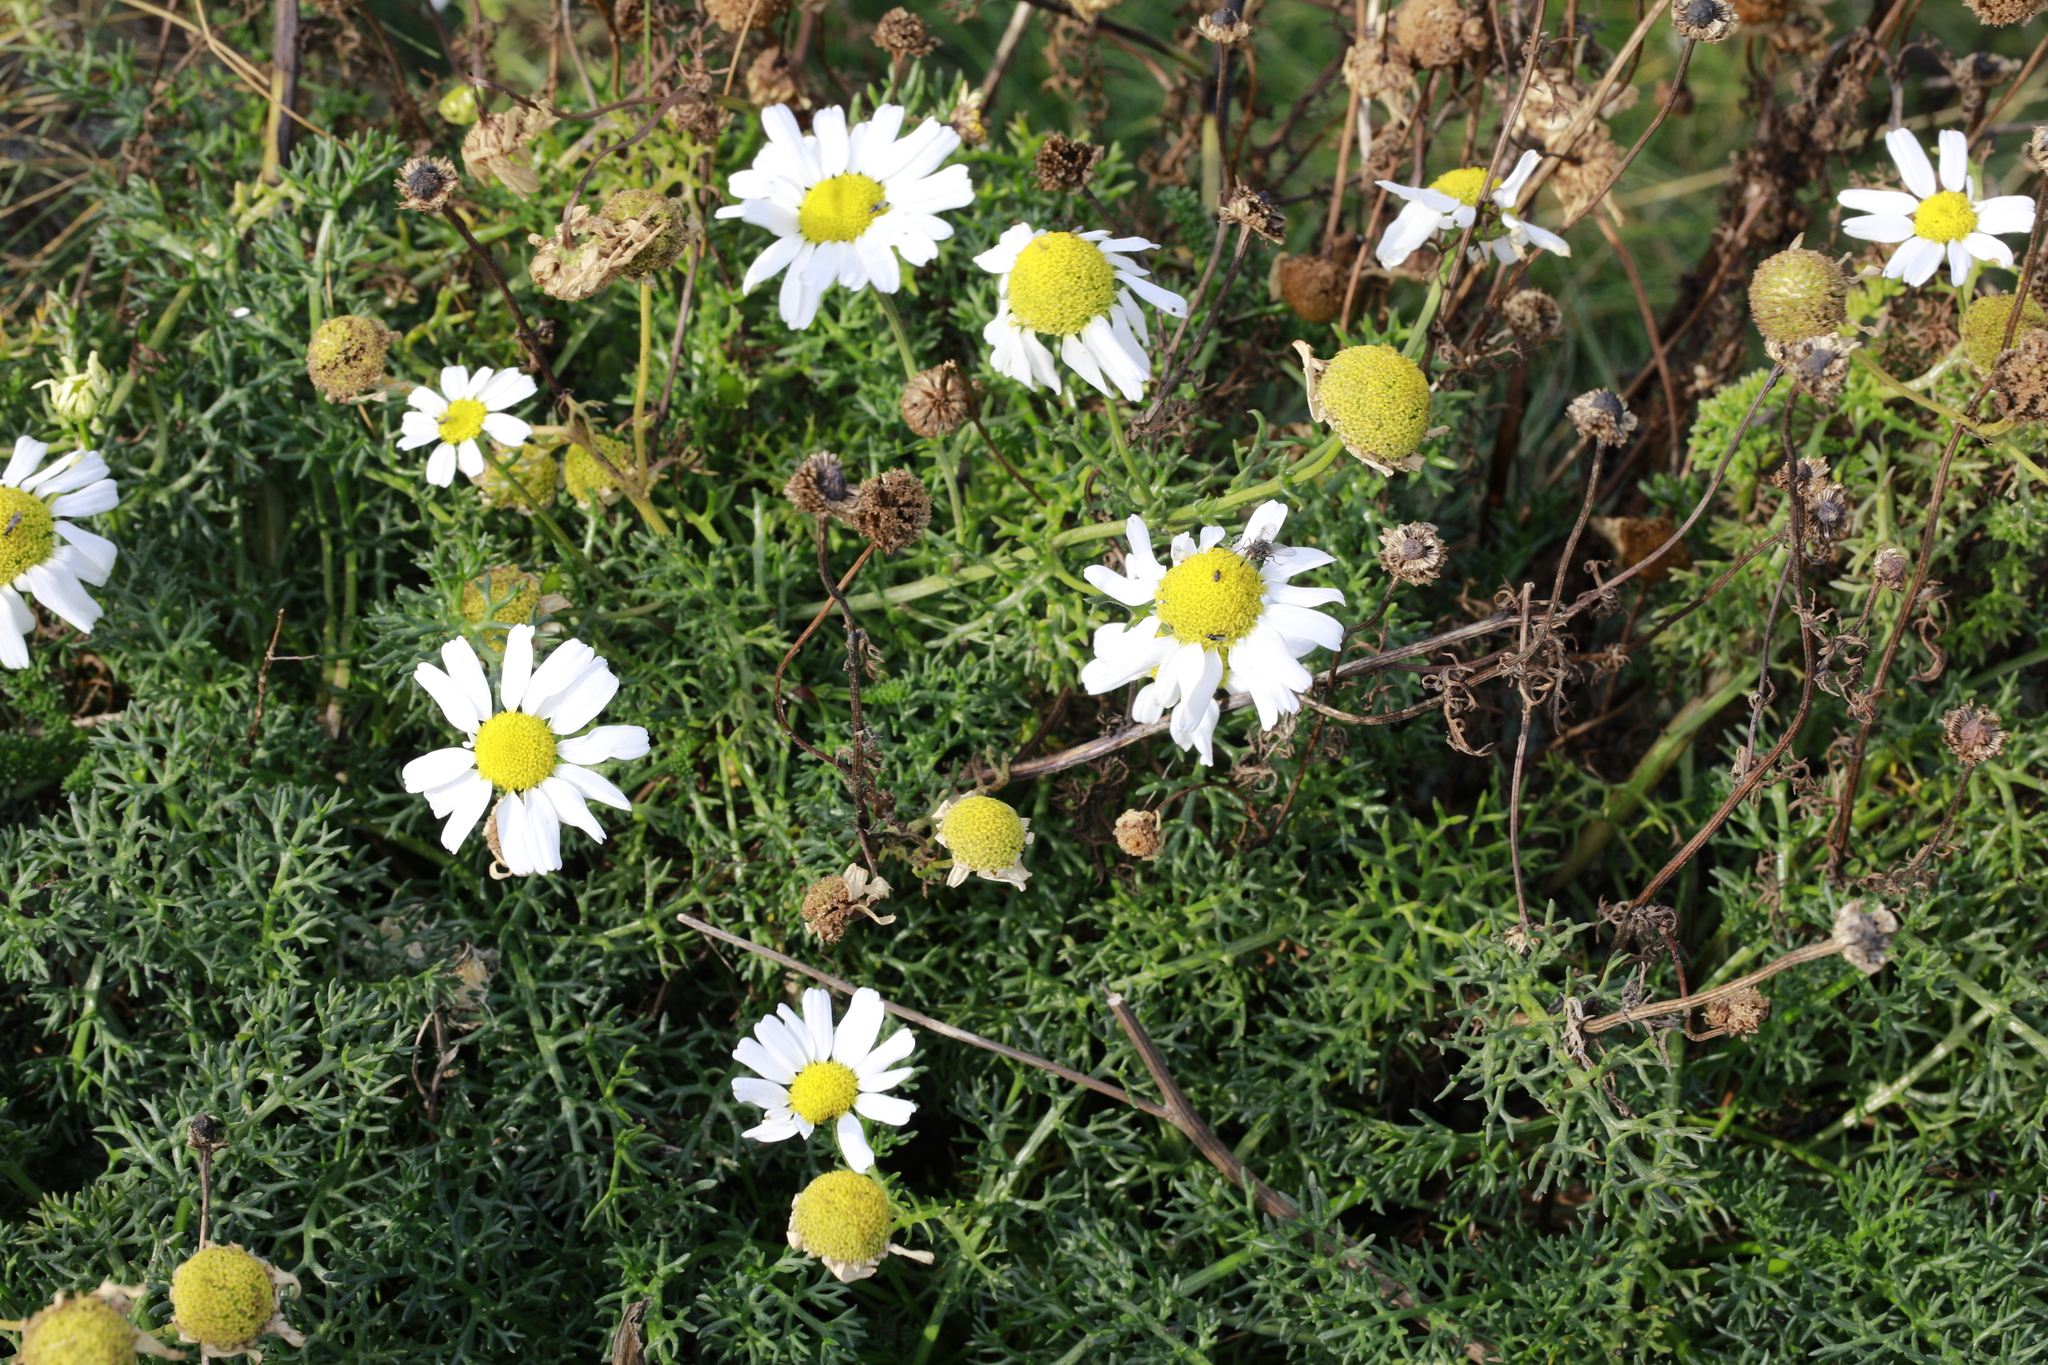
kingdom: Plantae
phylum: Tracheophyta
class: Magnoliopsida
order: Asterales
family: Asteraceae
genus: Tripleurospermum
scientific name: Tripleurospermum maritimum
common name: Sea mayweed
